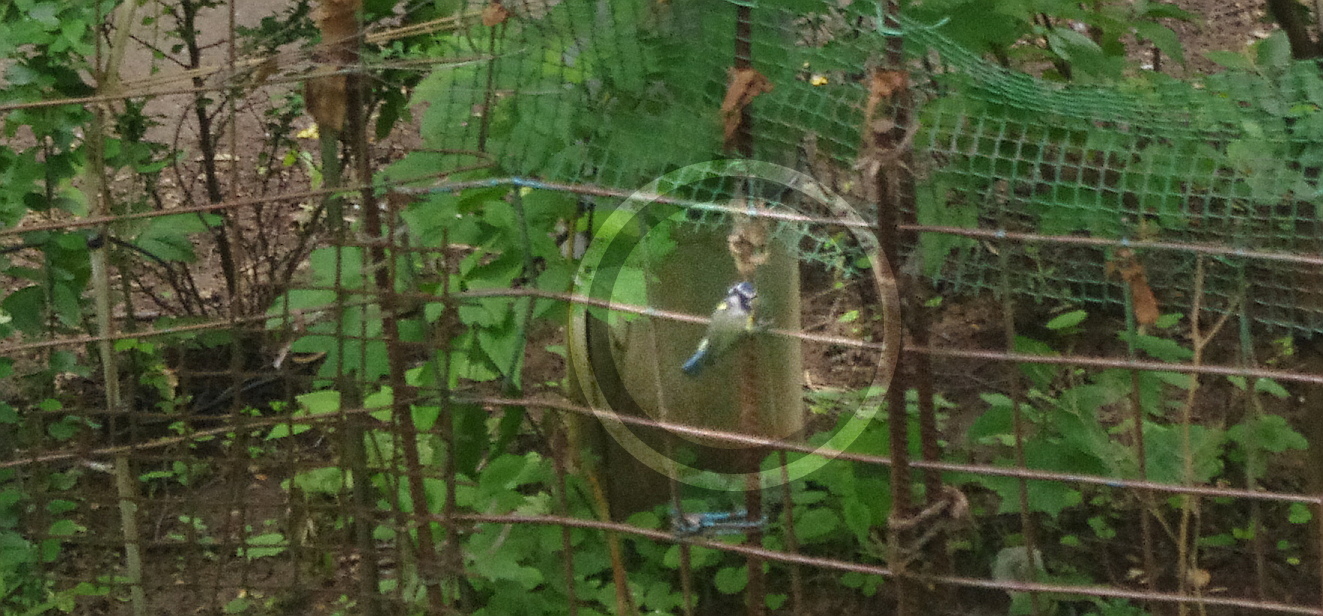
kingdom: Animalia
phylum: Chordata
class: Aves
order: Passeriformes
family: Paridae
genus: Cyanistes
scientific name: Cyanistes caeruleus
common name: Eurasian blue tit
